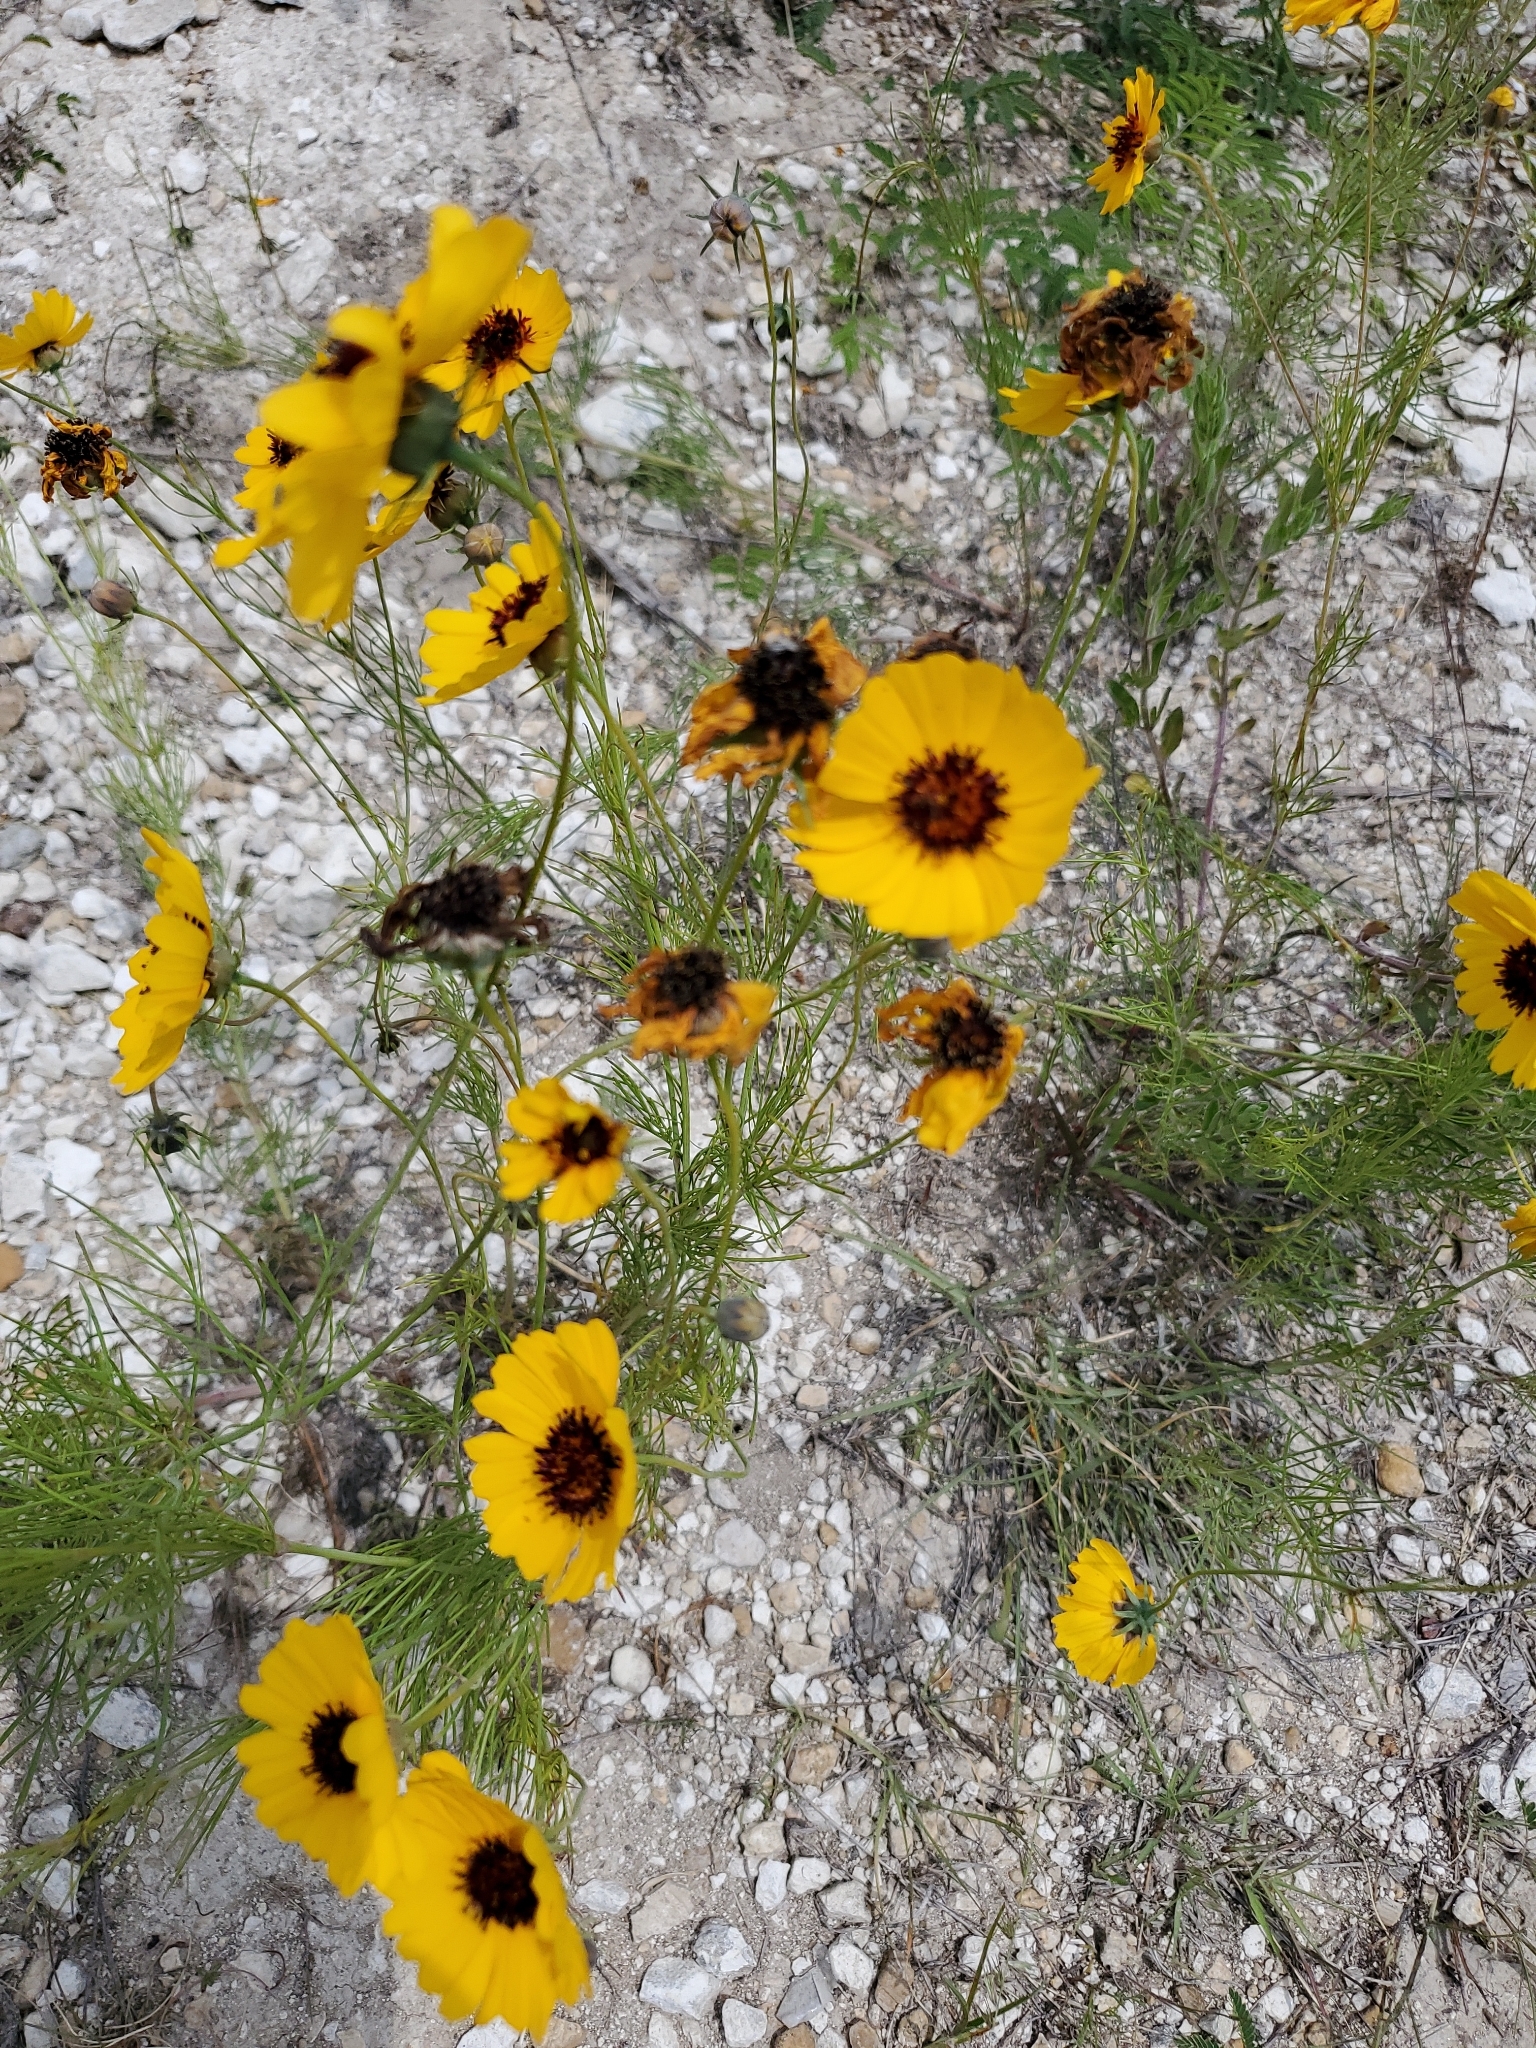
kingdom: Plantae
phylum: Tracheophyta
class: Magnoliopsida
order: Asterales
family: Asteraceae
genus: Thelesperma
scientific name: Thelesperma filifolium
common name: Stiff greenthread
